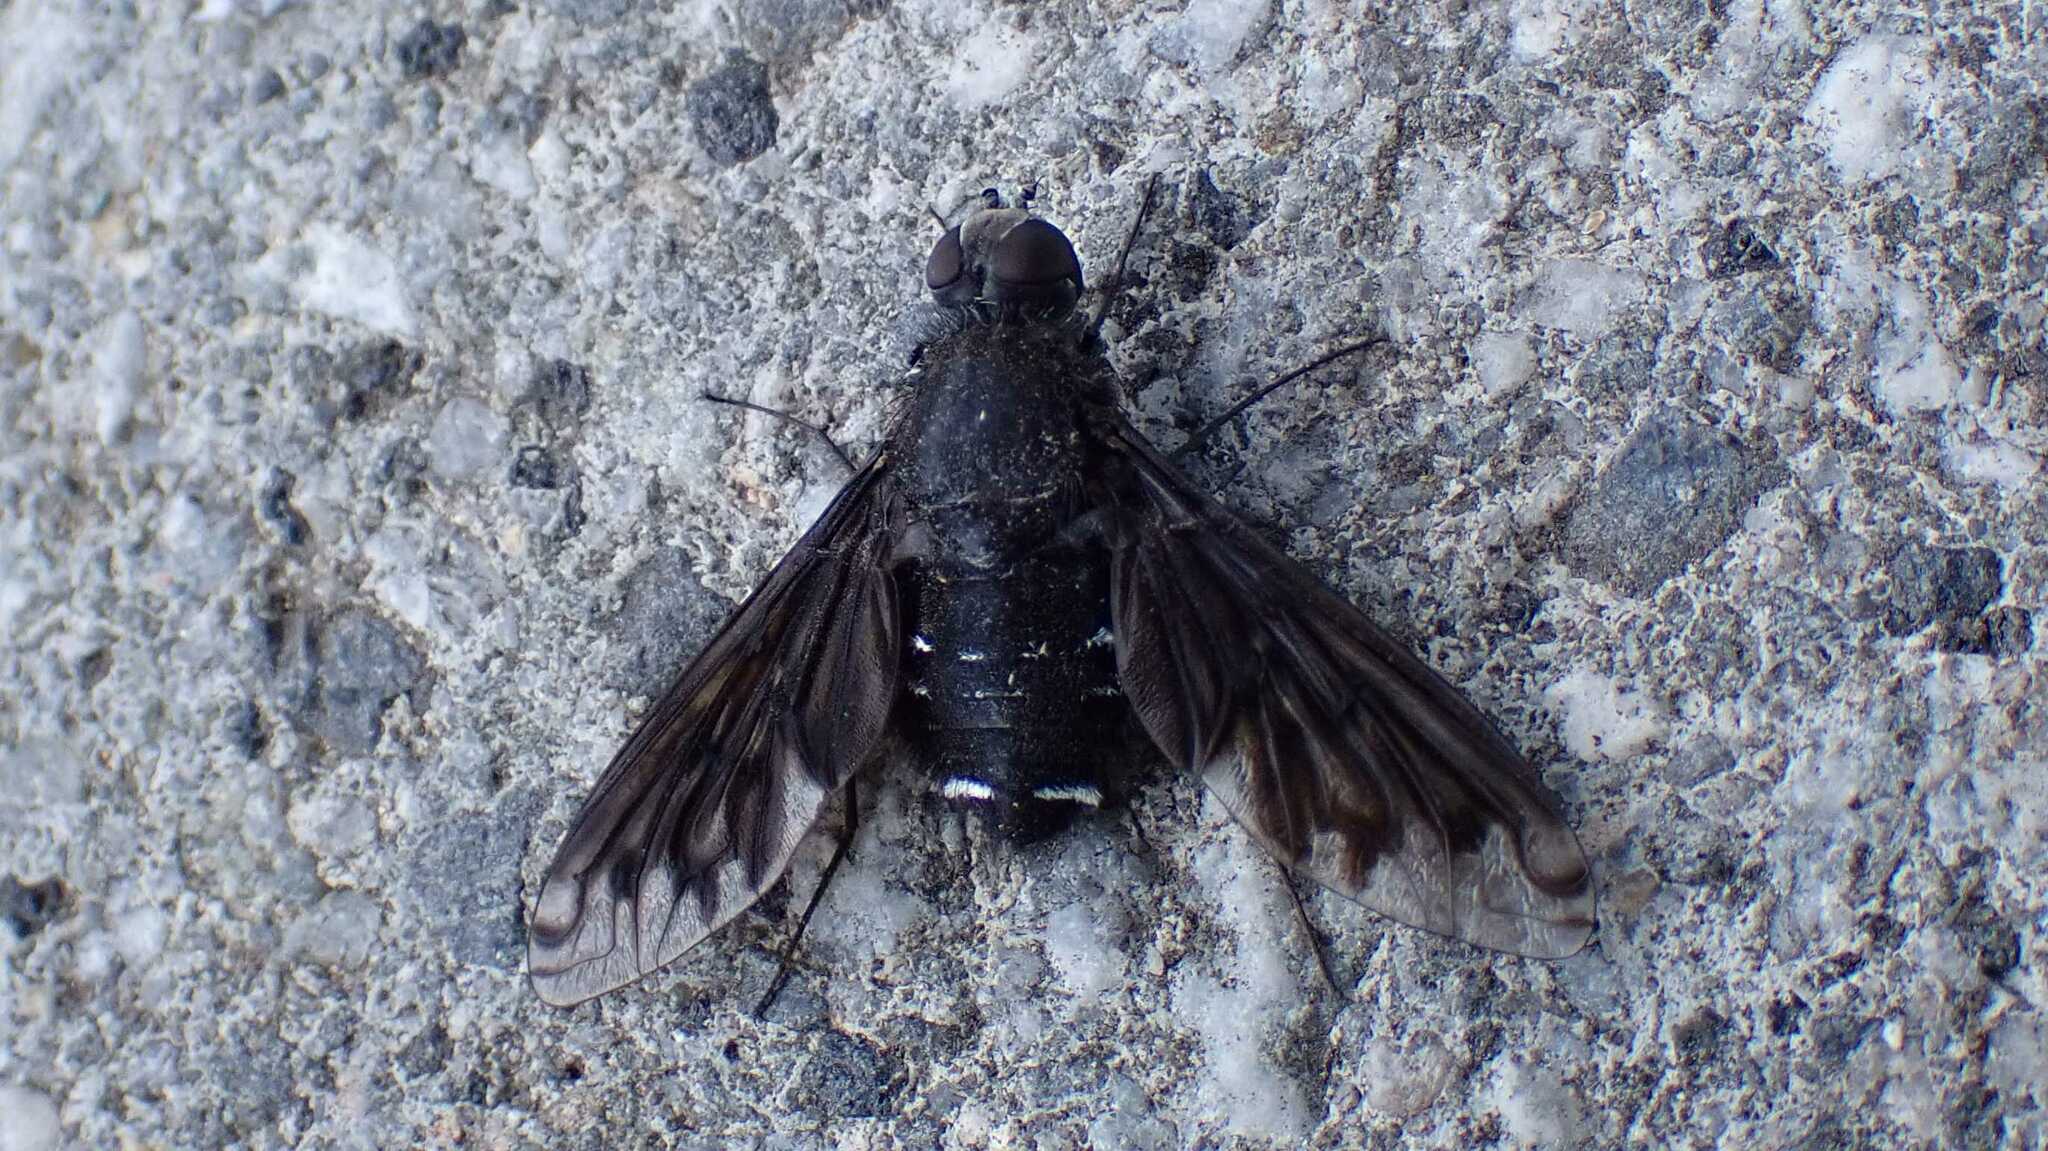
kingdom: Animalia
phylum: Arthropoda
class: Insecta
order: Diptera
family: Bombyliidae
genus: Anthrax
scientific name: Anthrax anthrax
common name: Anthracite bee-fly
